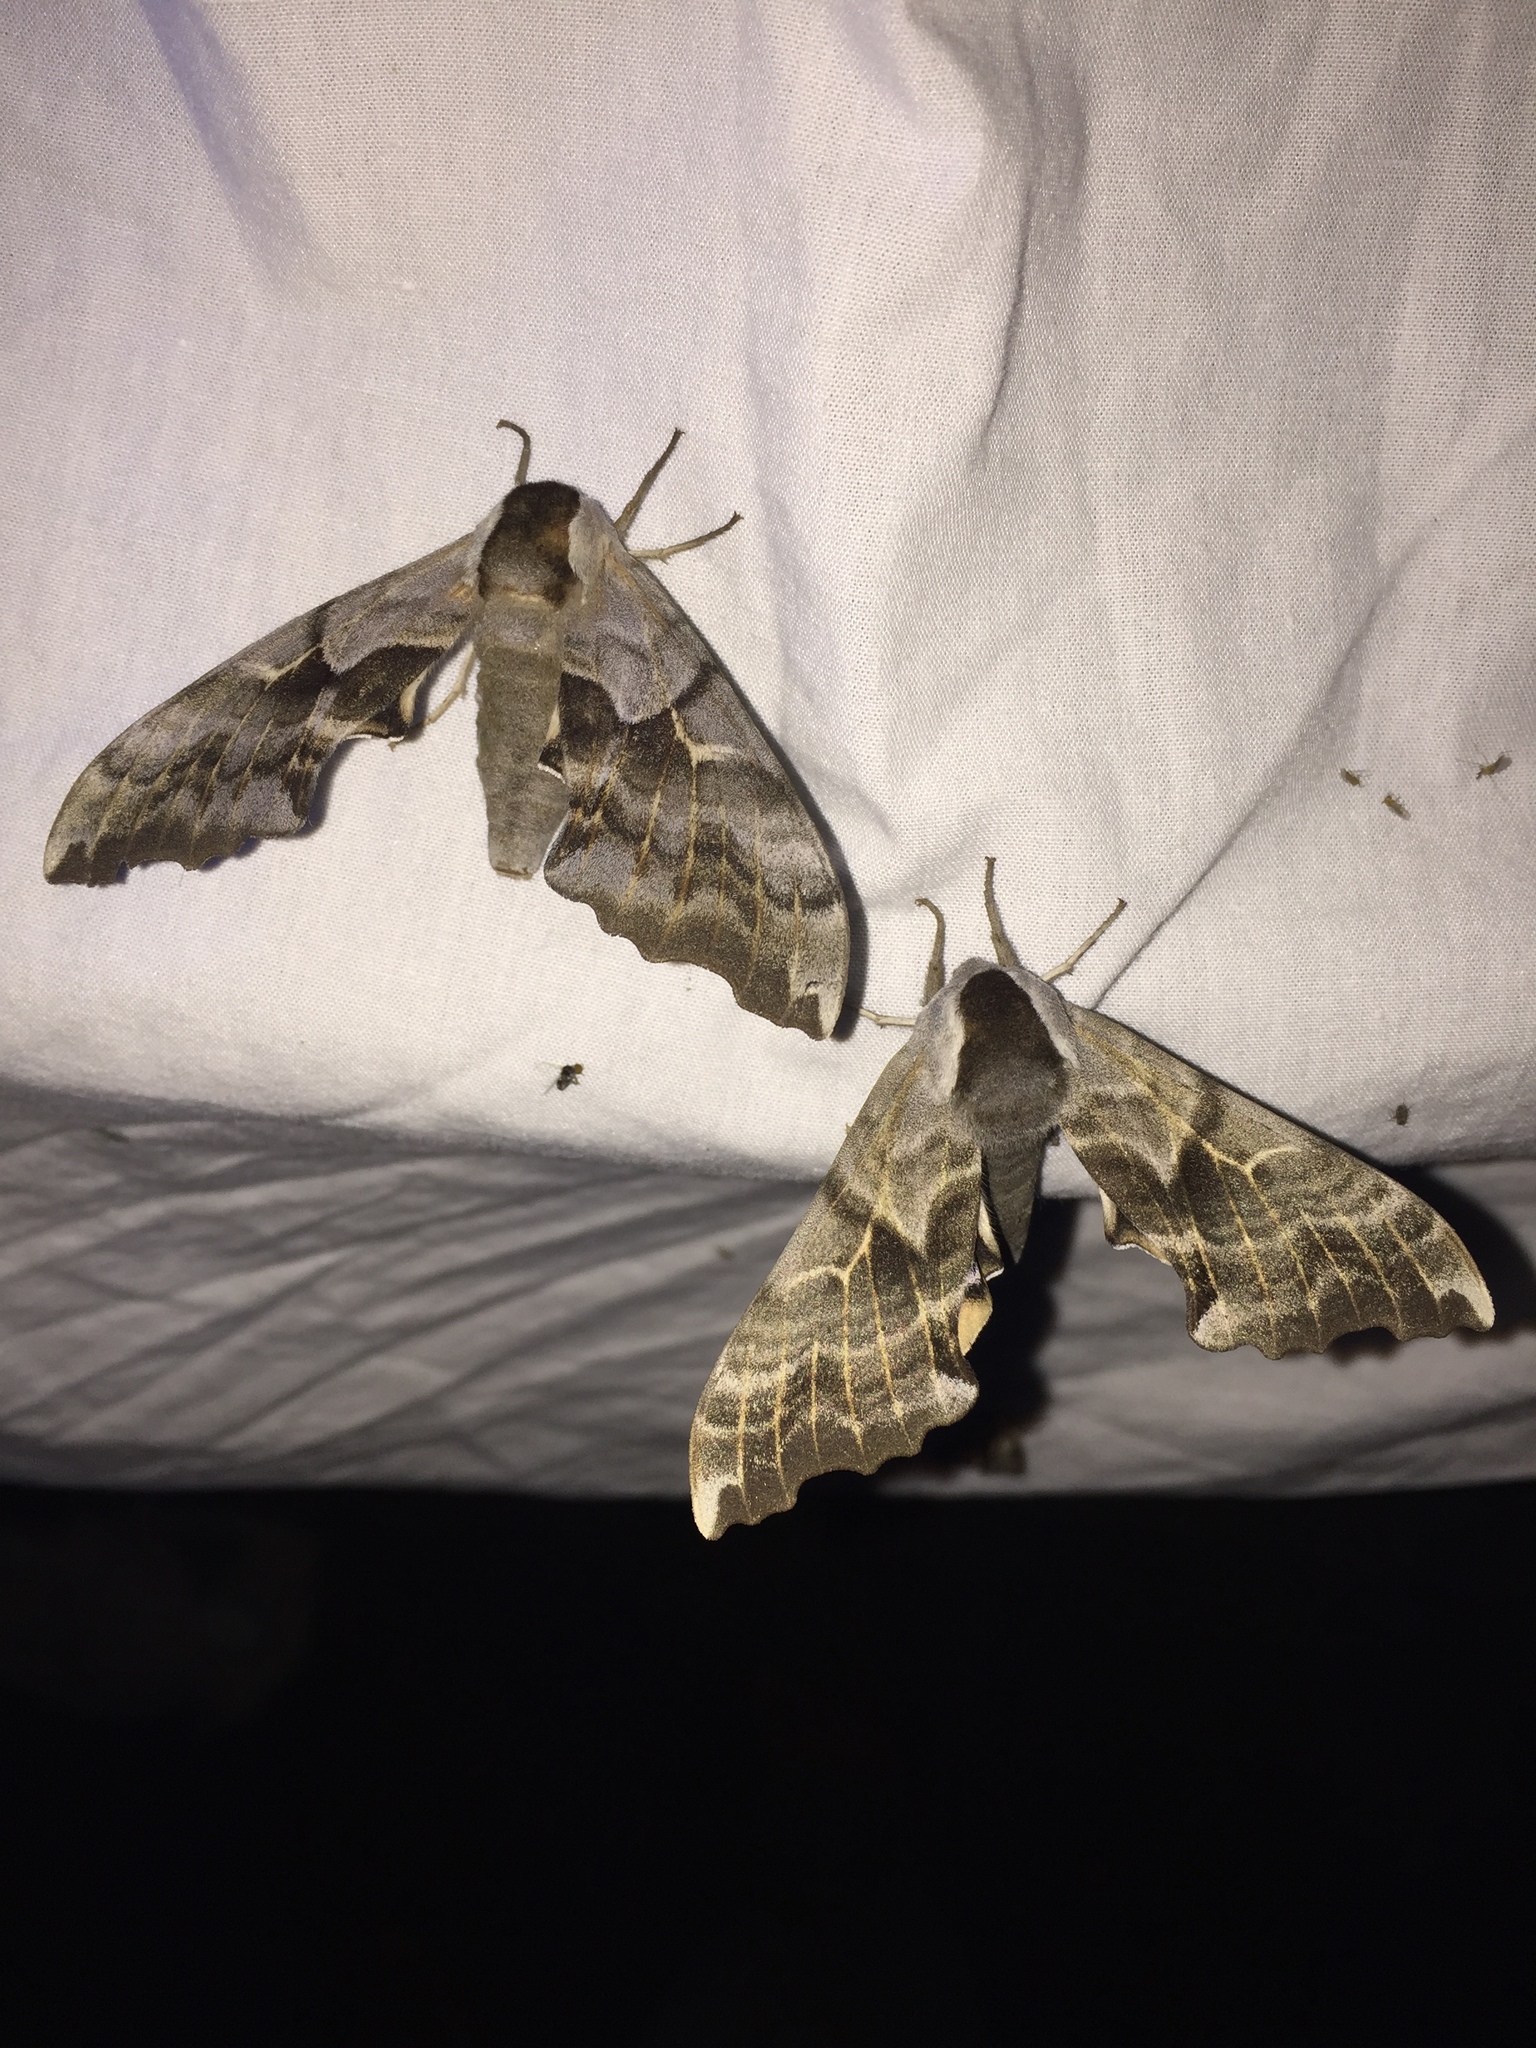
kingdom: Animalia
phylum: Arthropoda
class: Insecta
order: Lepidoptera
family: Sphingidae
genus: Smerinthus
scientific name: Smerinthus cerisyi
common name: Cerisy's sphinx moth
